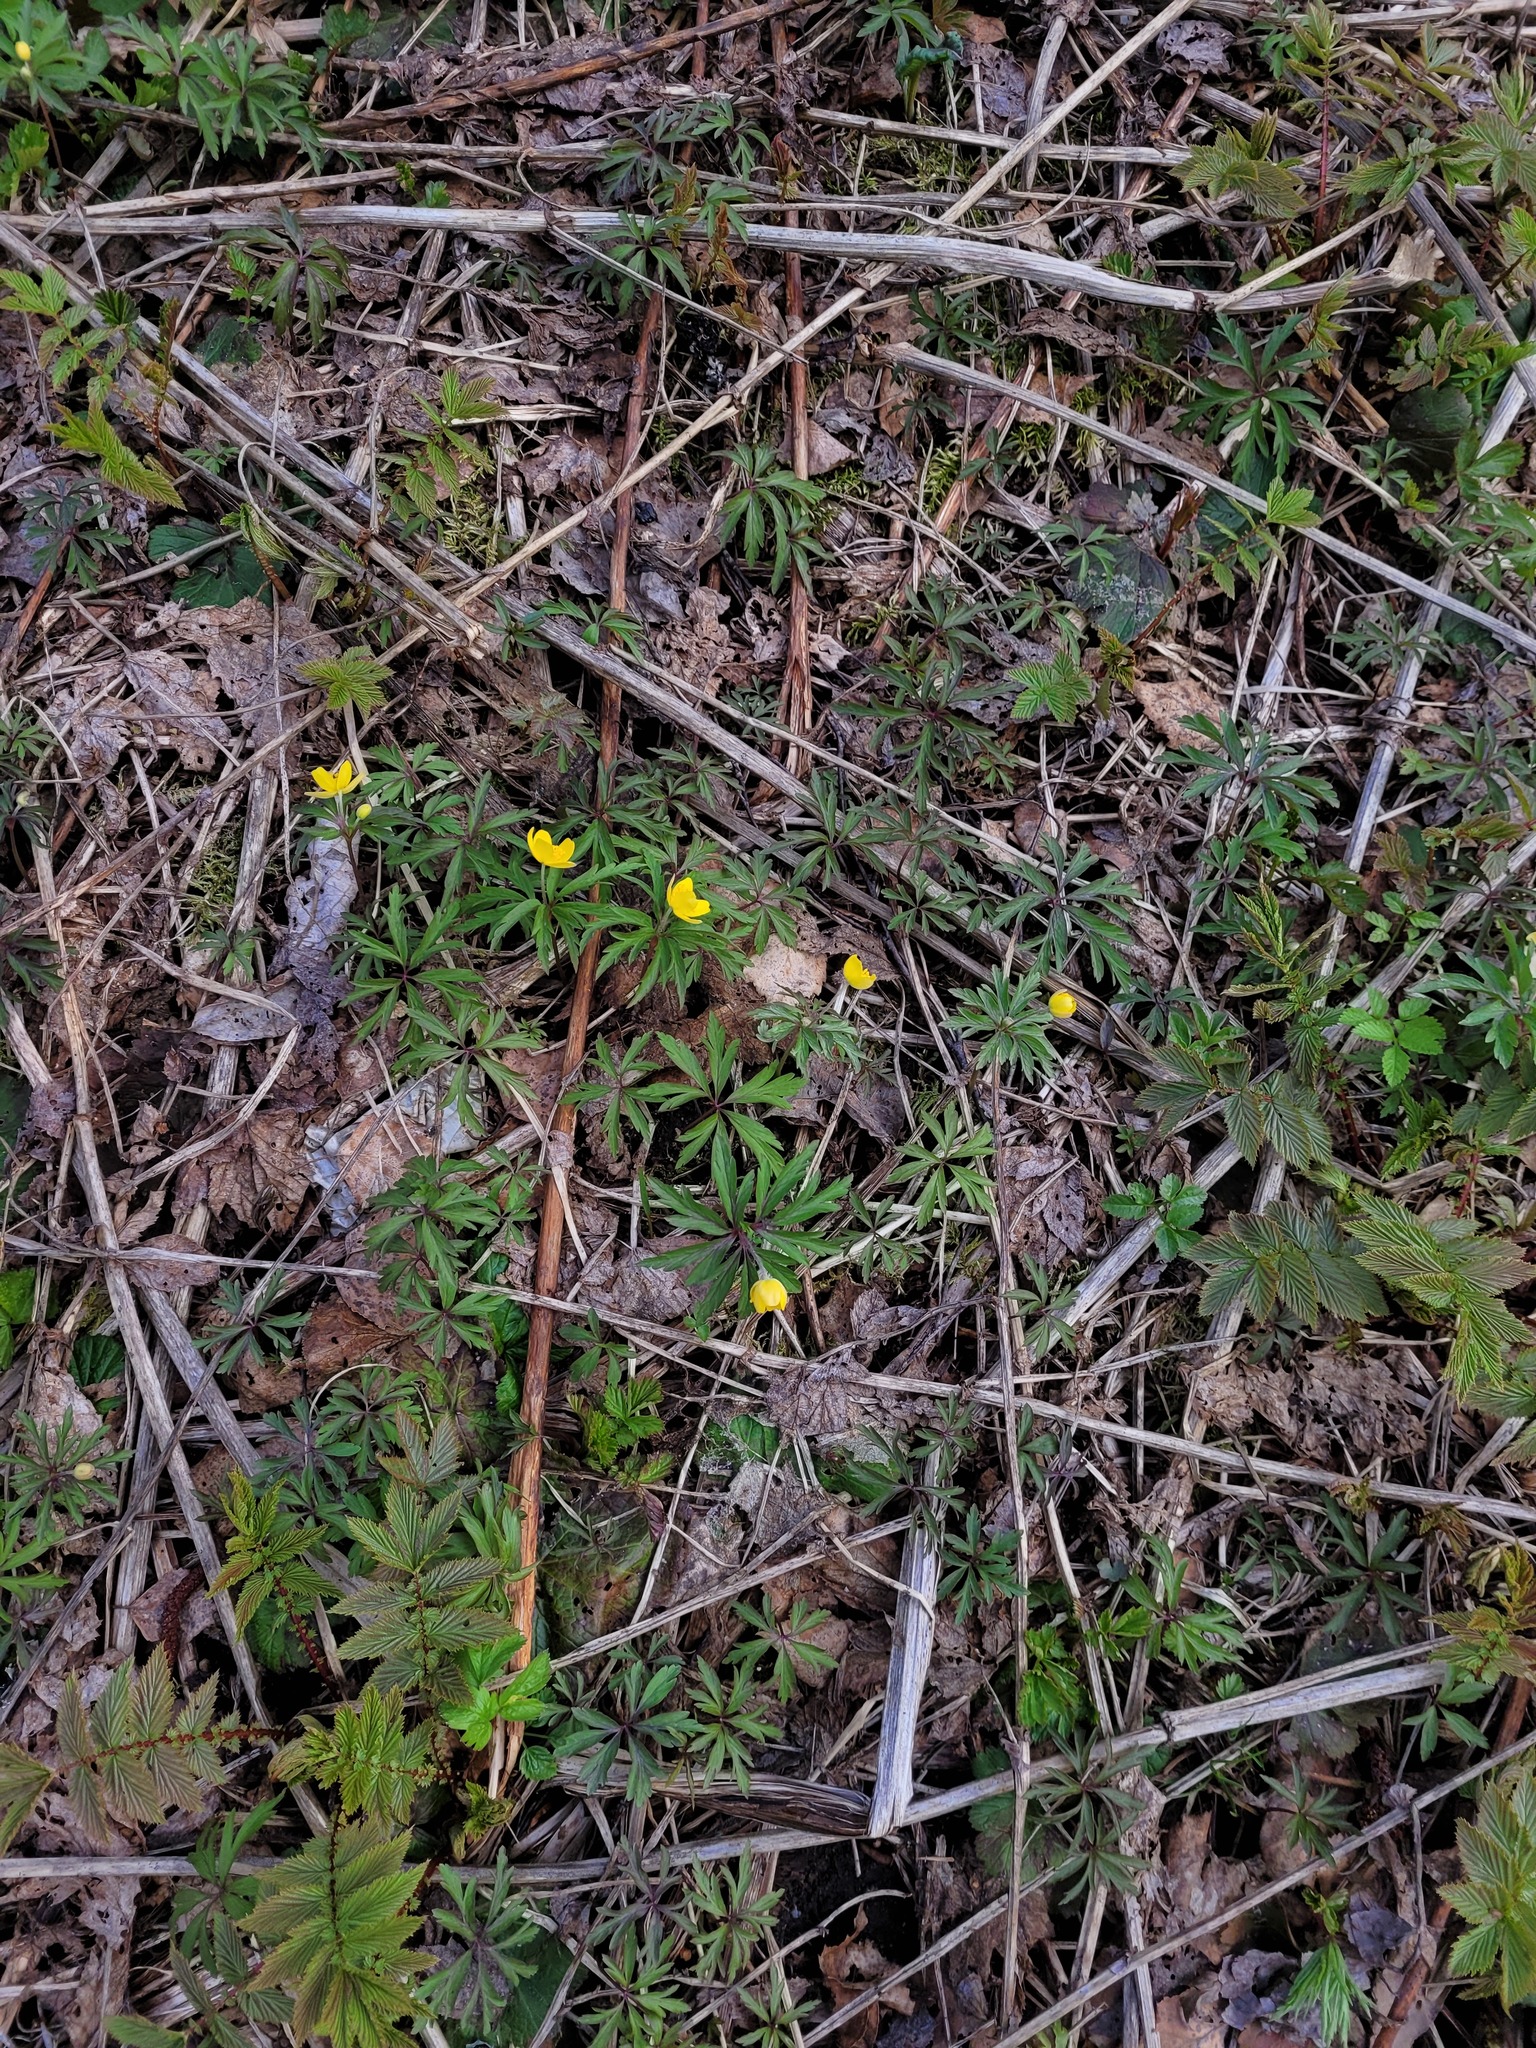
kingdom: Plantae
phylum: Tracheophyta
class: Magnoliopsida
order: Ranunculales
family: Ranunculaceae
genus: Anemone
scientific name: Anemone ranunculoides
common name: Yellow anemone
